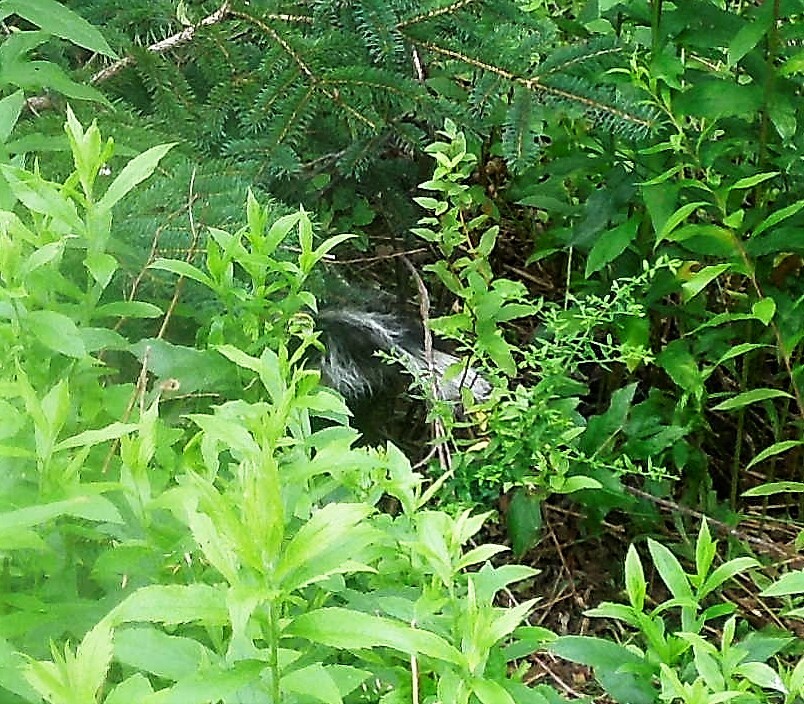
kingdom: Animalia
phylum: Chordata
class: Mammalia
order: Carnivora
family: Mephitidae
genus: Mephitis
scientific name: Mephitis mephitis
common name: Striped skunk
